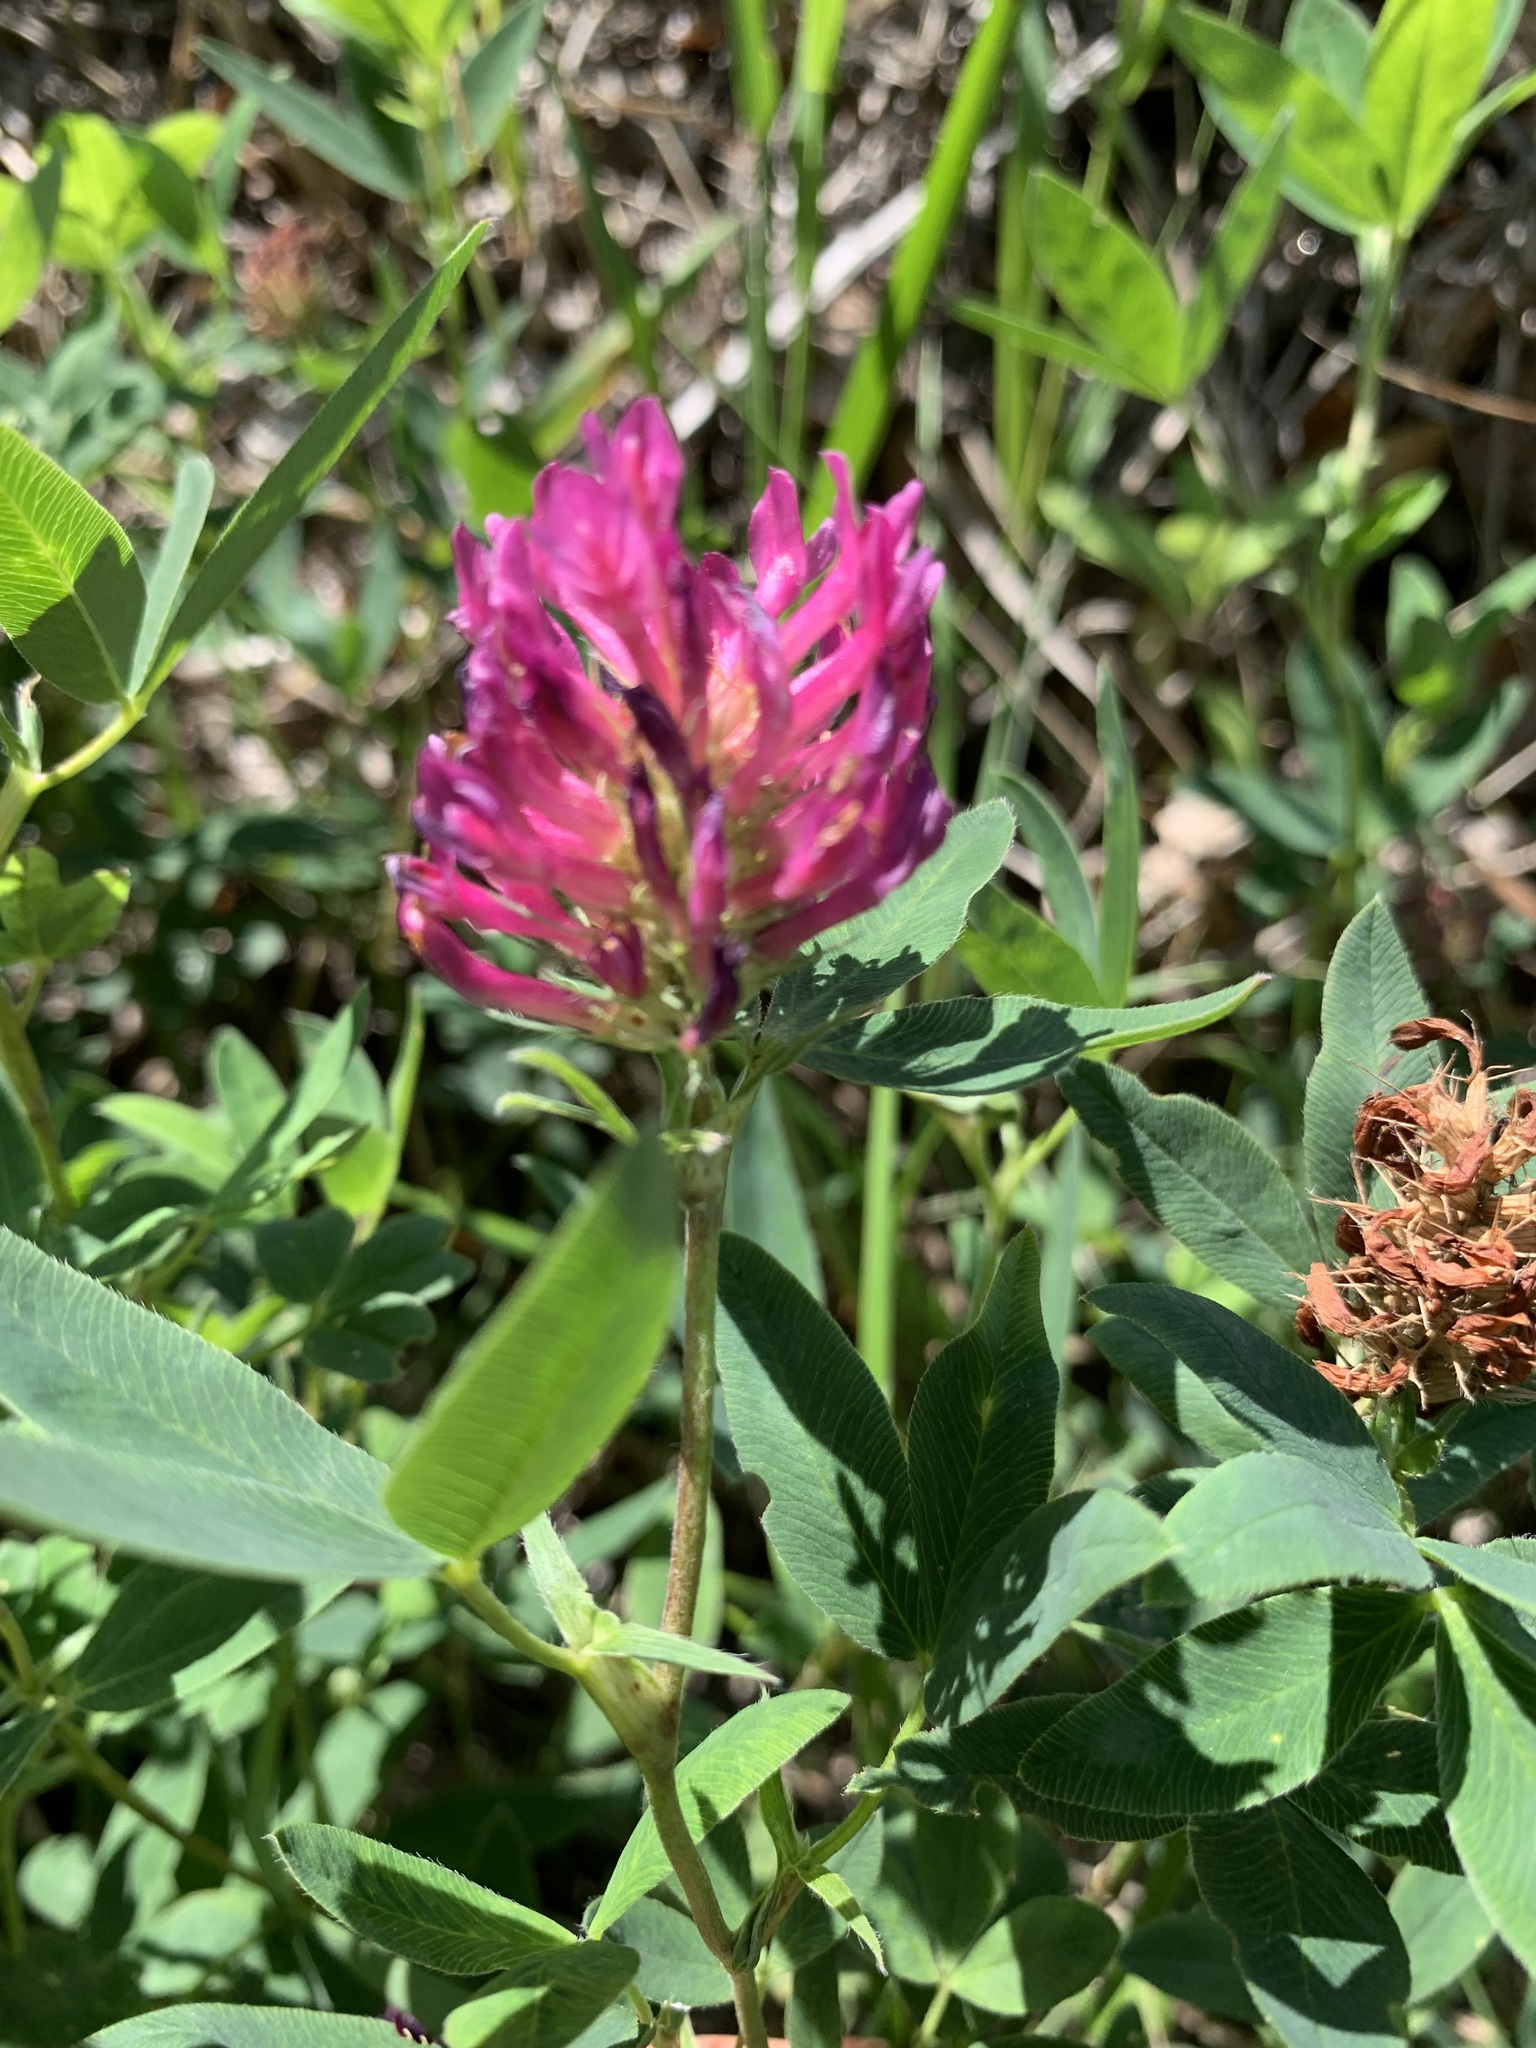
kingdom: Plantae
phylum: Tracheophyta
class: Magnoliopsida
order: Fabales
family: Fabaceae
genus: Trifolium
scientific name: Trifolium medium
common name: Zigzag clover
